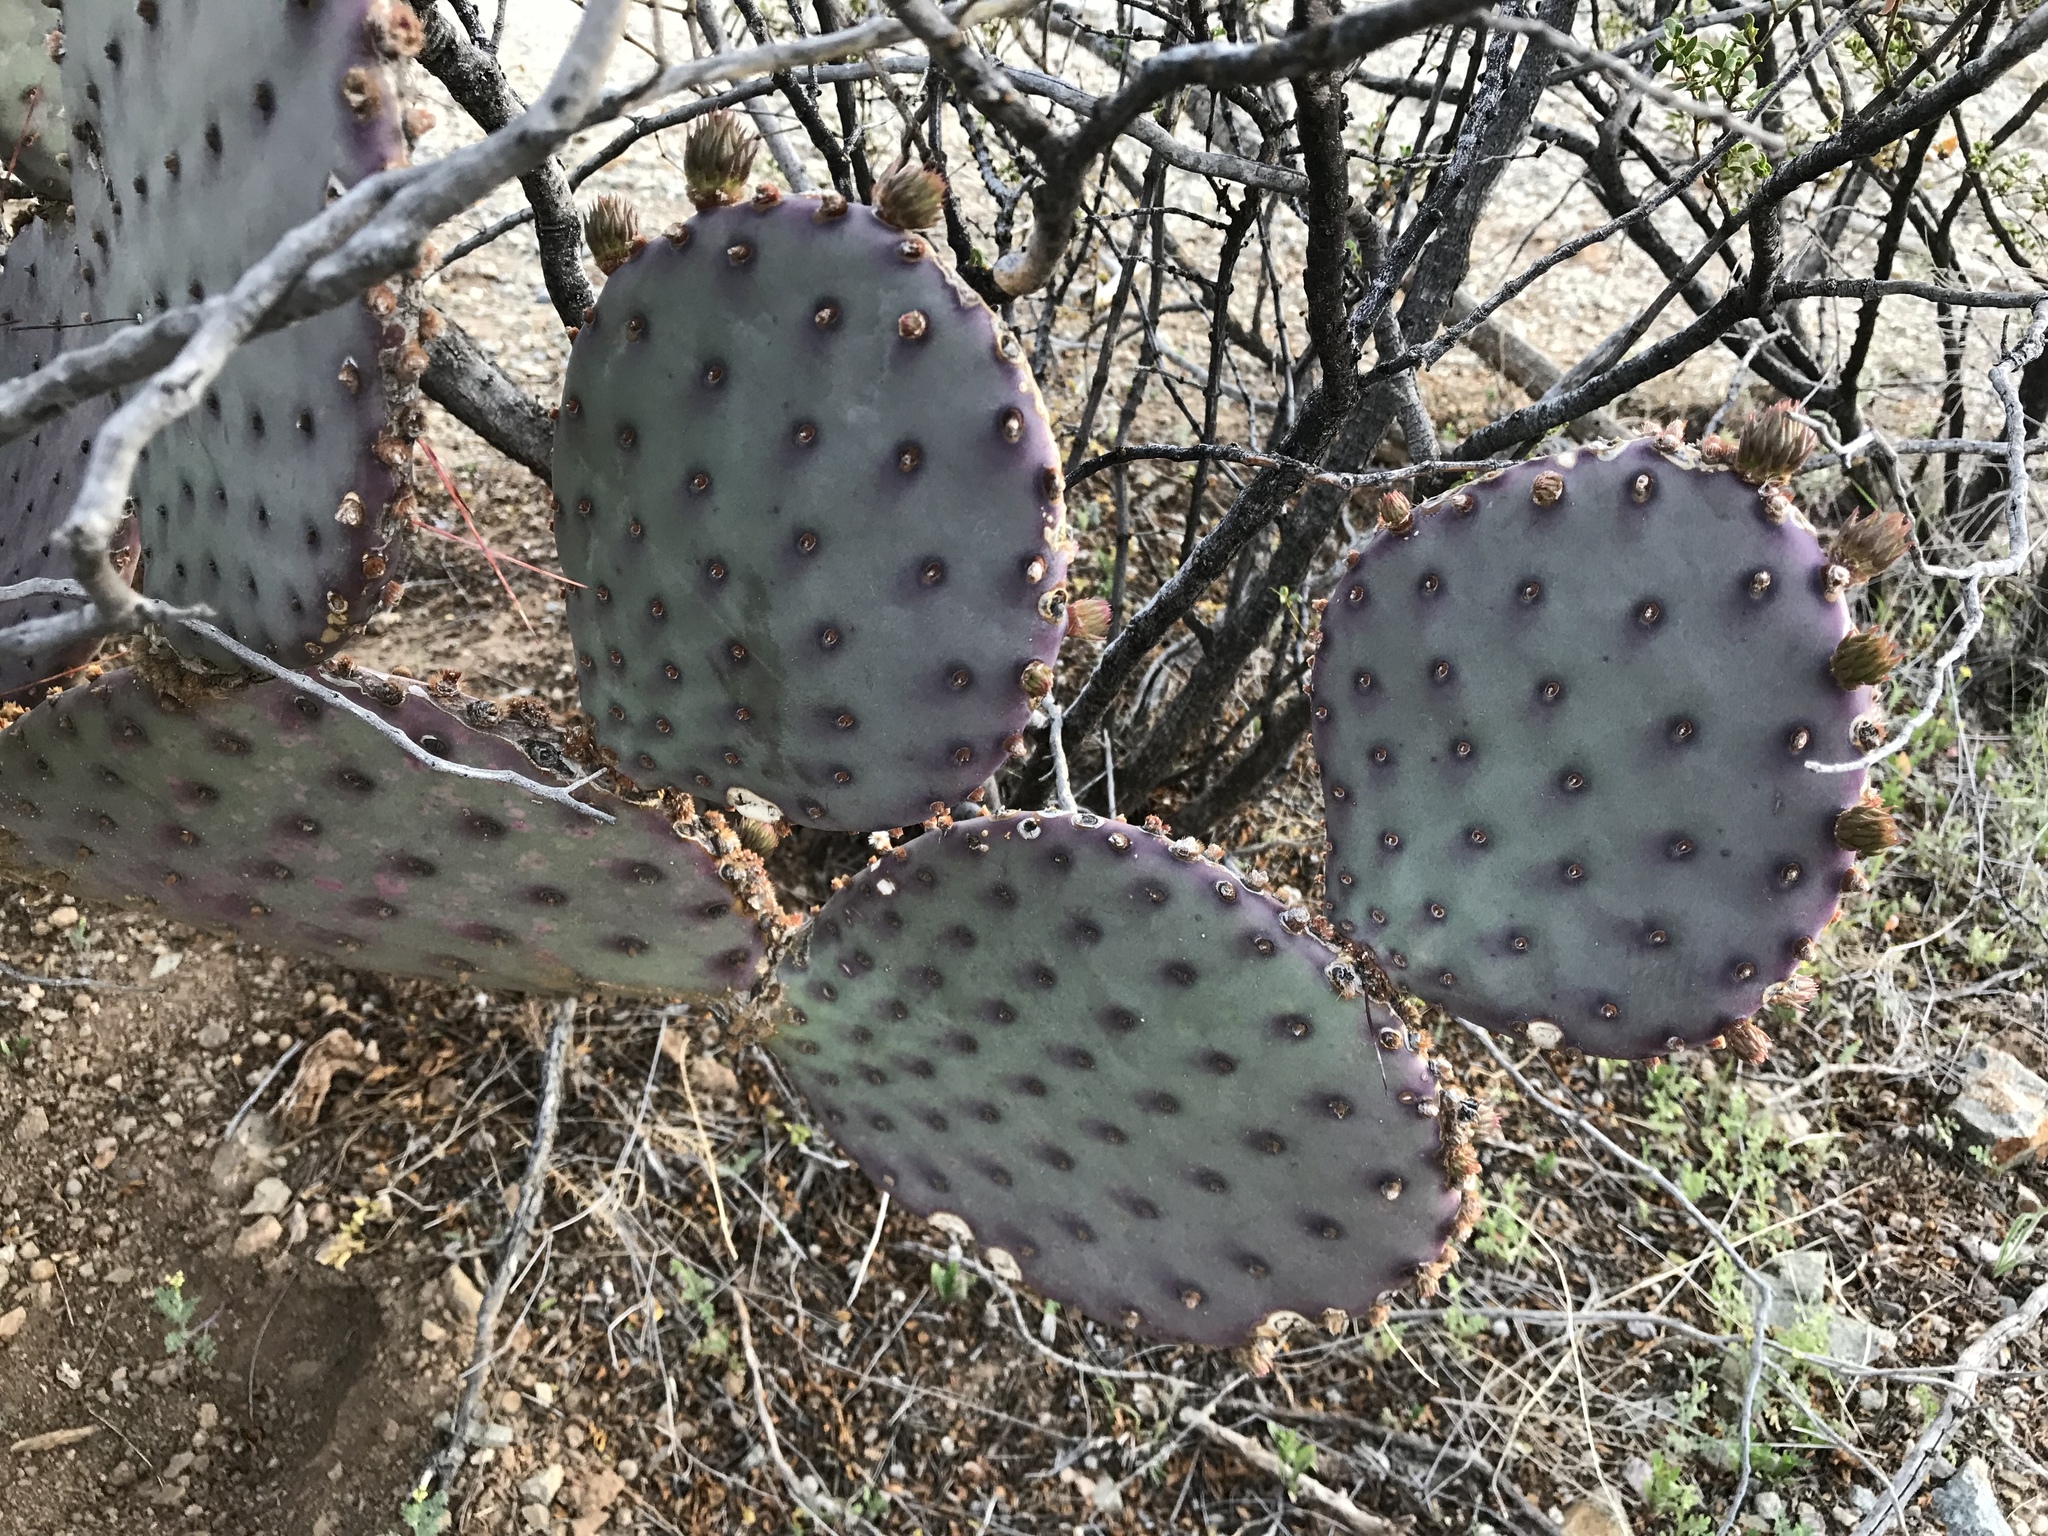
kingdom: Plantae
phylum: Tracheophyta
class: Magnoliopsida
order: Caryophyllales
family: Cactaceae
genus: Opuntia
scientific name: Opuntia macrocentra
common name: Purple prickly-pear
